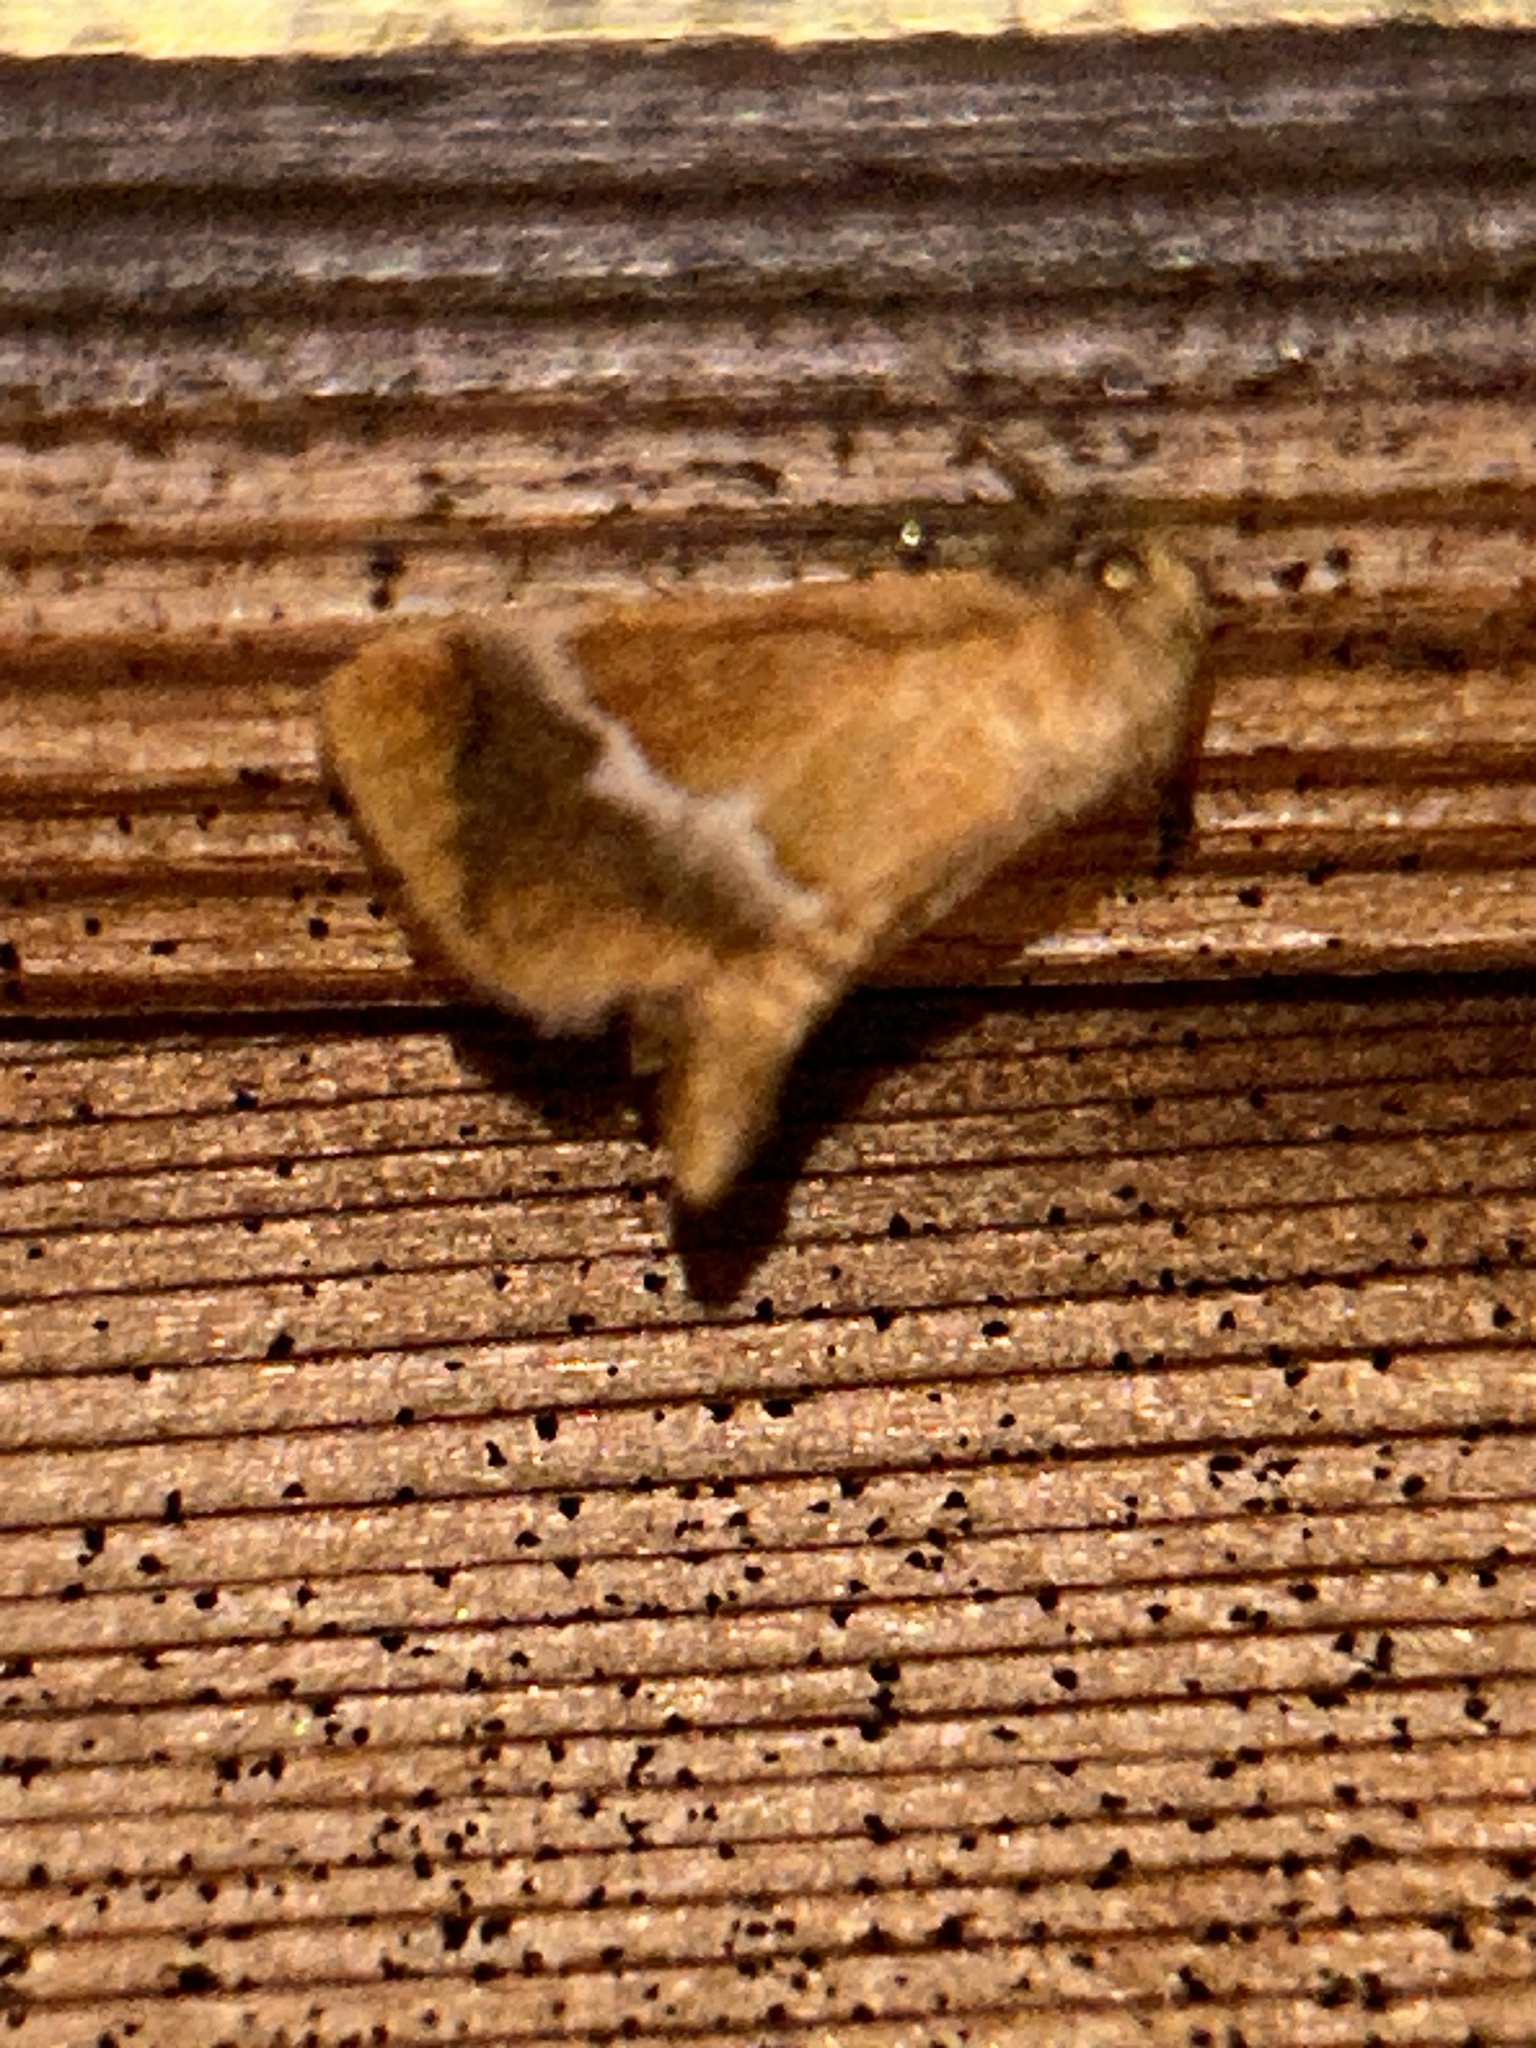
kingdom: Animalia
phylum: Arthropoda
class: Insecta
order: Lepidoptera
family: Limacodidae
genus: Lithacodes
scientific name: Lithacodes fasciola
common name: Yellow-shouldered slug moth
